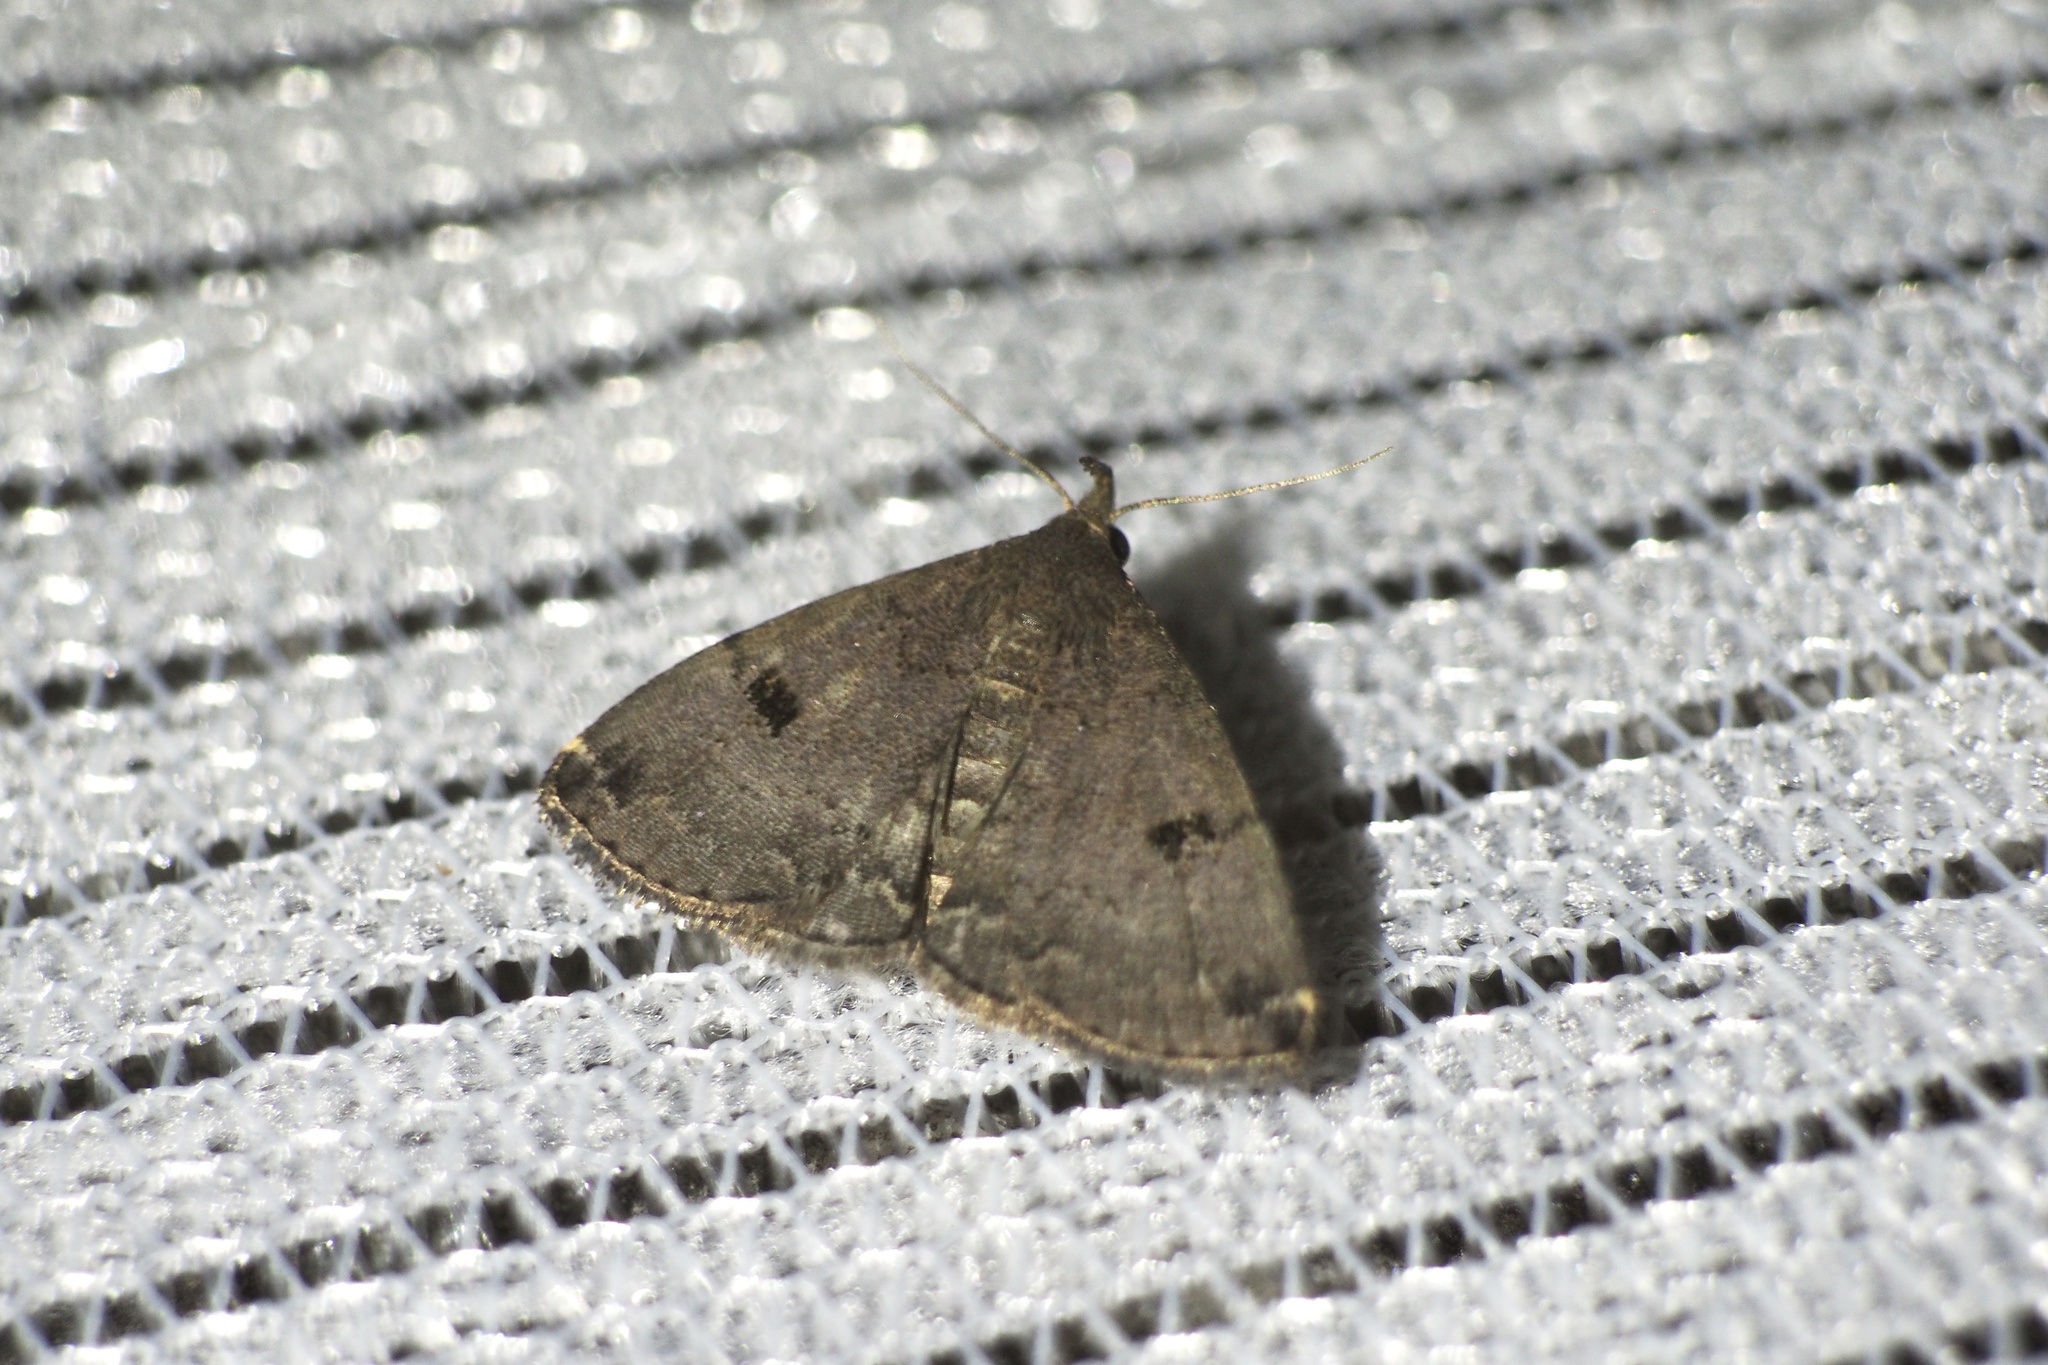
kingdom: Animalia
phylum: Arthropoda
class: Insecta
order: Lepidoptera
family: Erebidae
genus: Sinarella
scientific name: Sinarella
